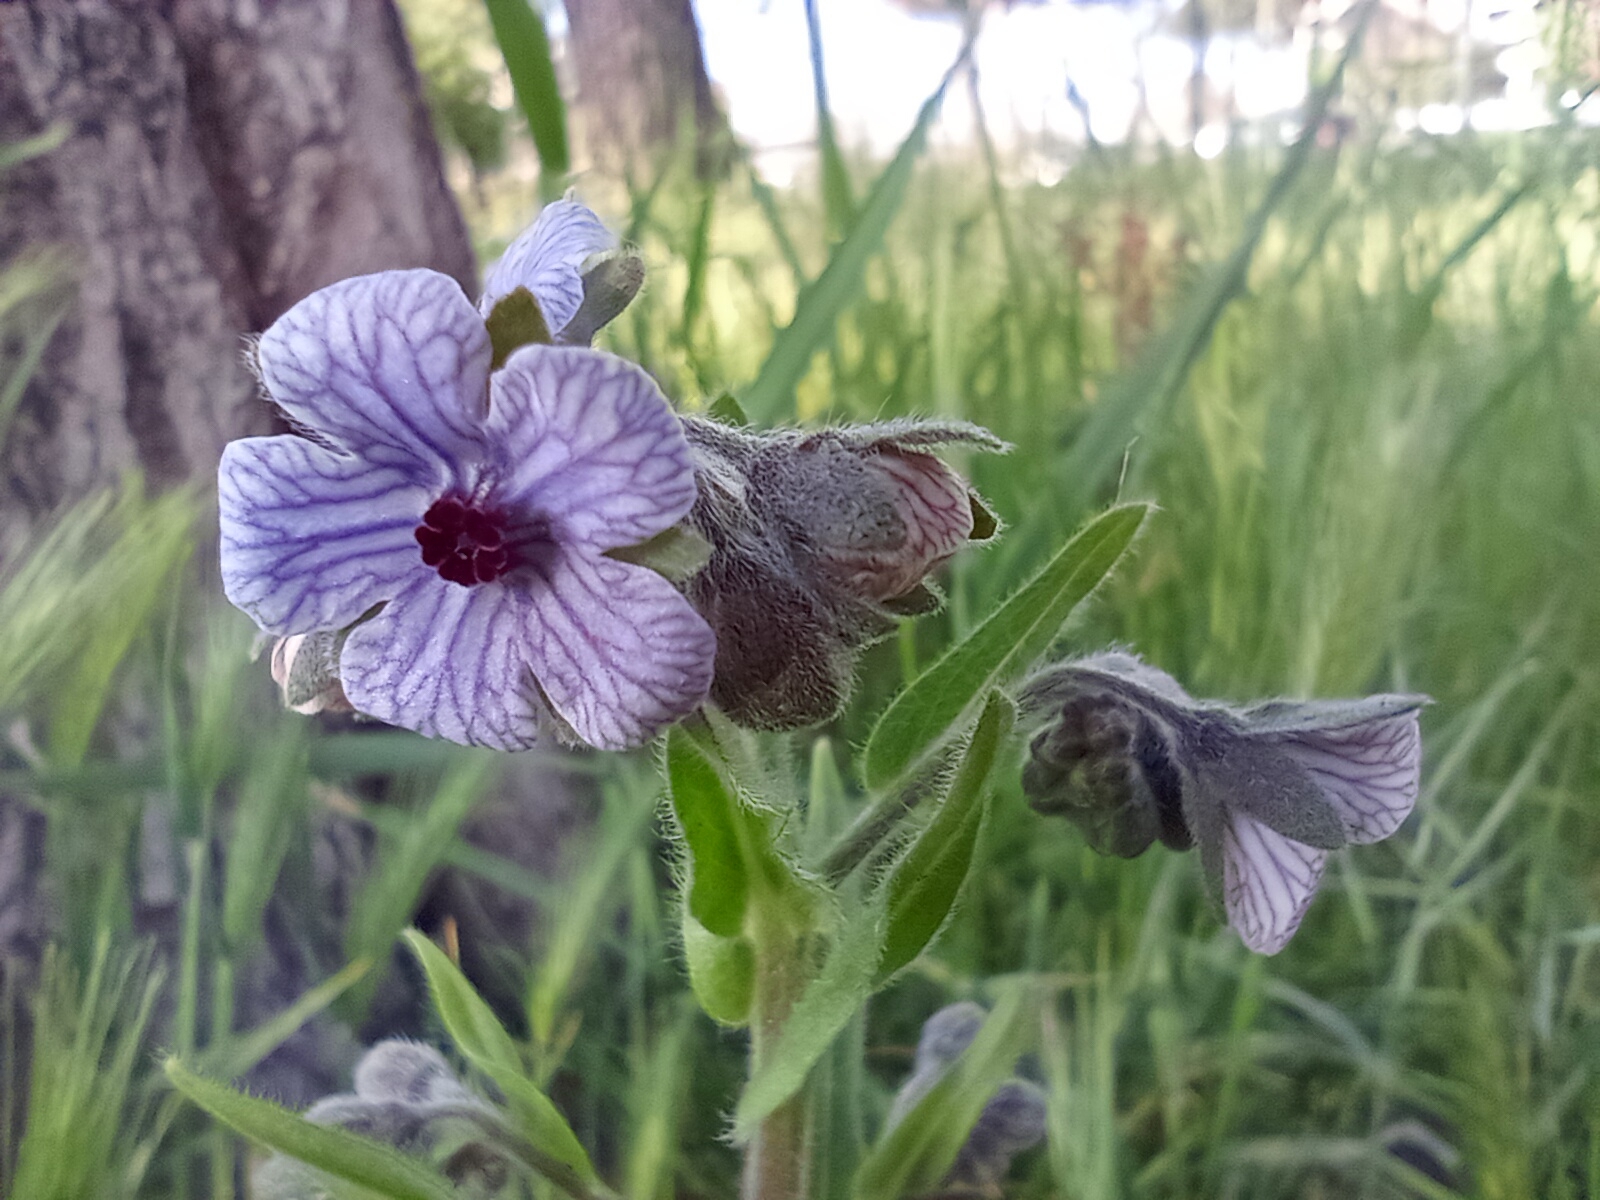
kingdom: Plantae
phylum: Tracheophyta
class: Magnoliopsida
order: Boraginales
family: Boraginaceae
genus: Cynoglossum
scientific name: Cynoglossum creticum
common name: Blue hound's tongue
